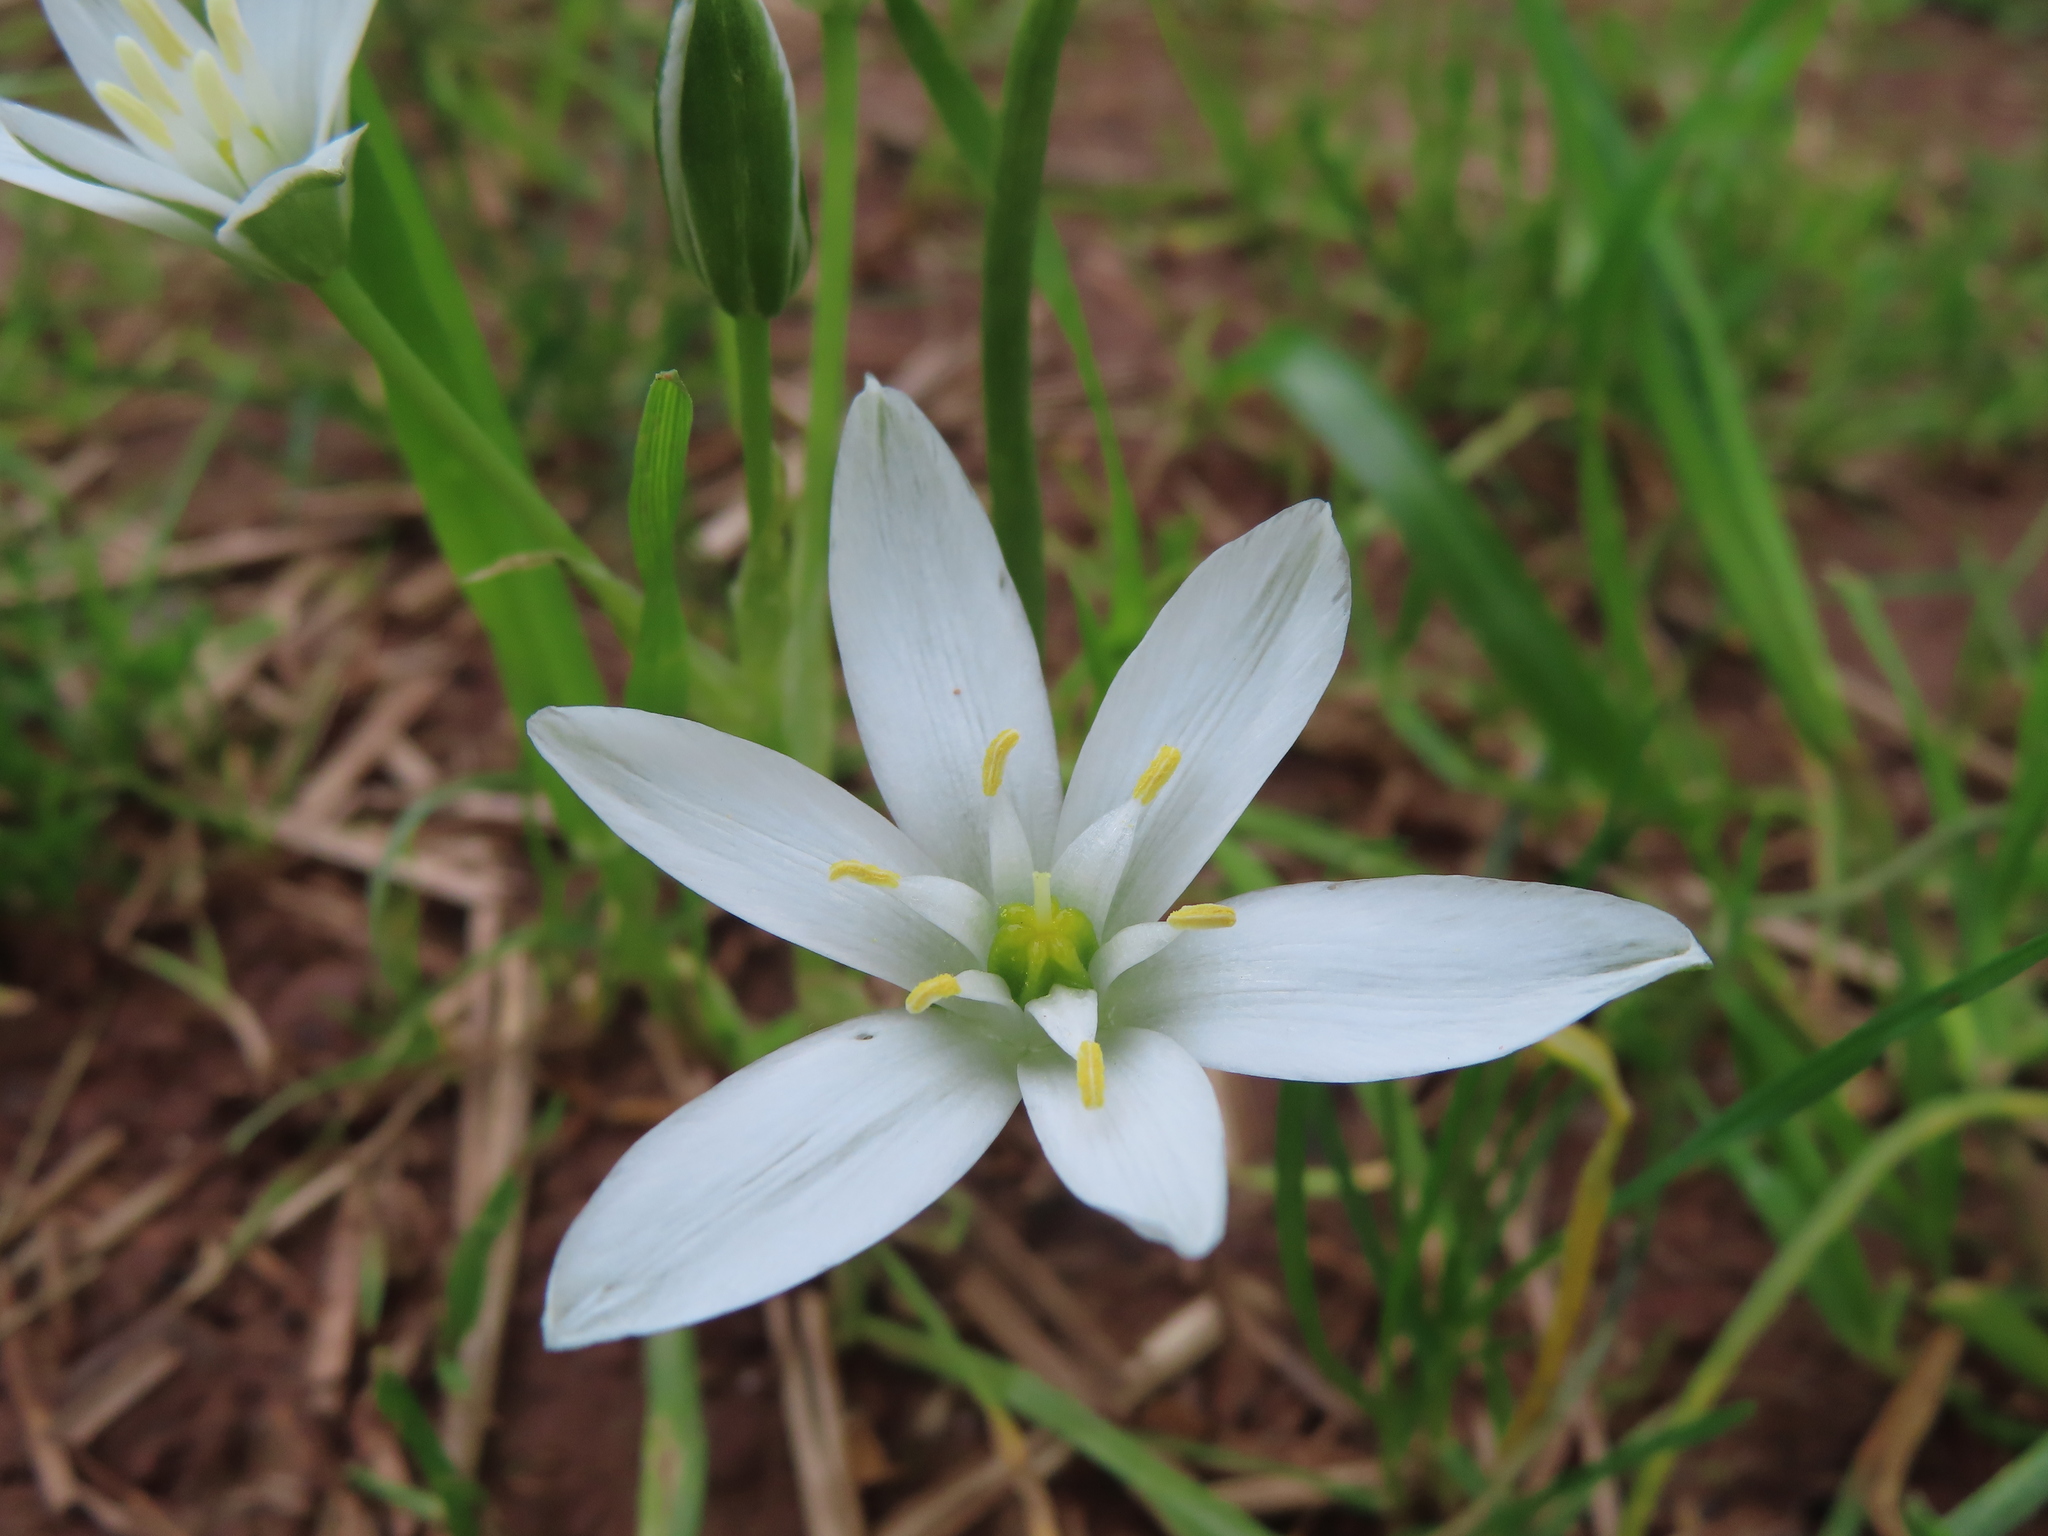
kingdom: Plantae
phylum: Tracheophyta
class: Liliopsida
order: Asparagales
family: Asparagaceae
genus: Ornithogalum
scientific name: Ornithogalum umbellatum
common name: Garden star-of-bethlehem
